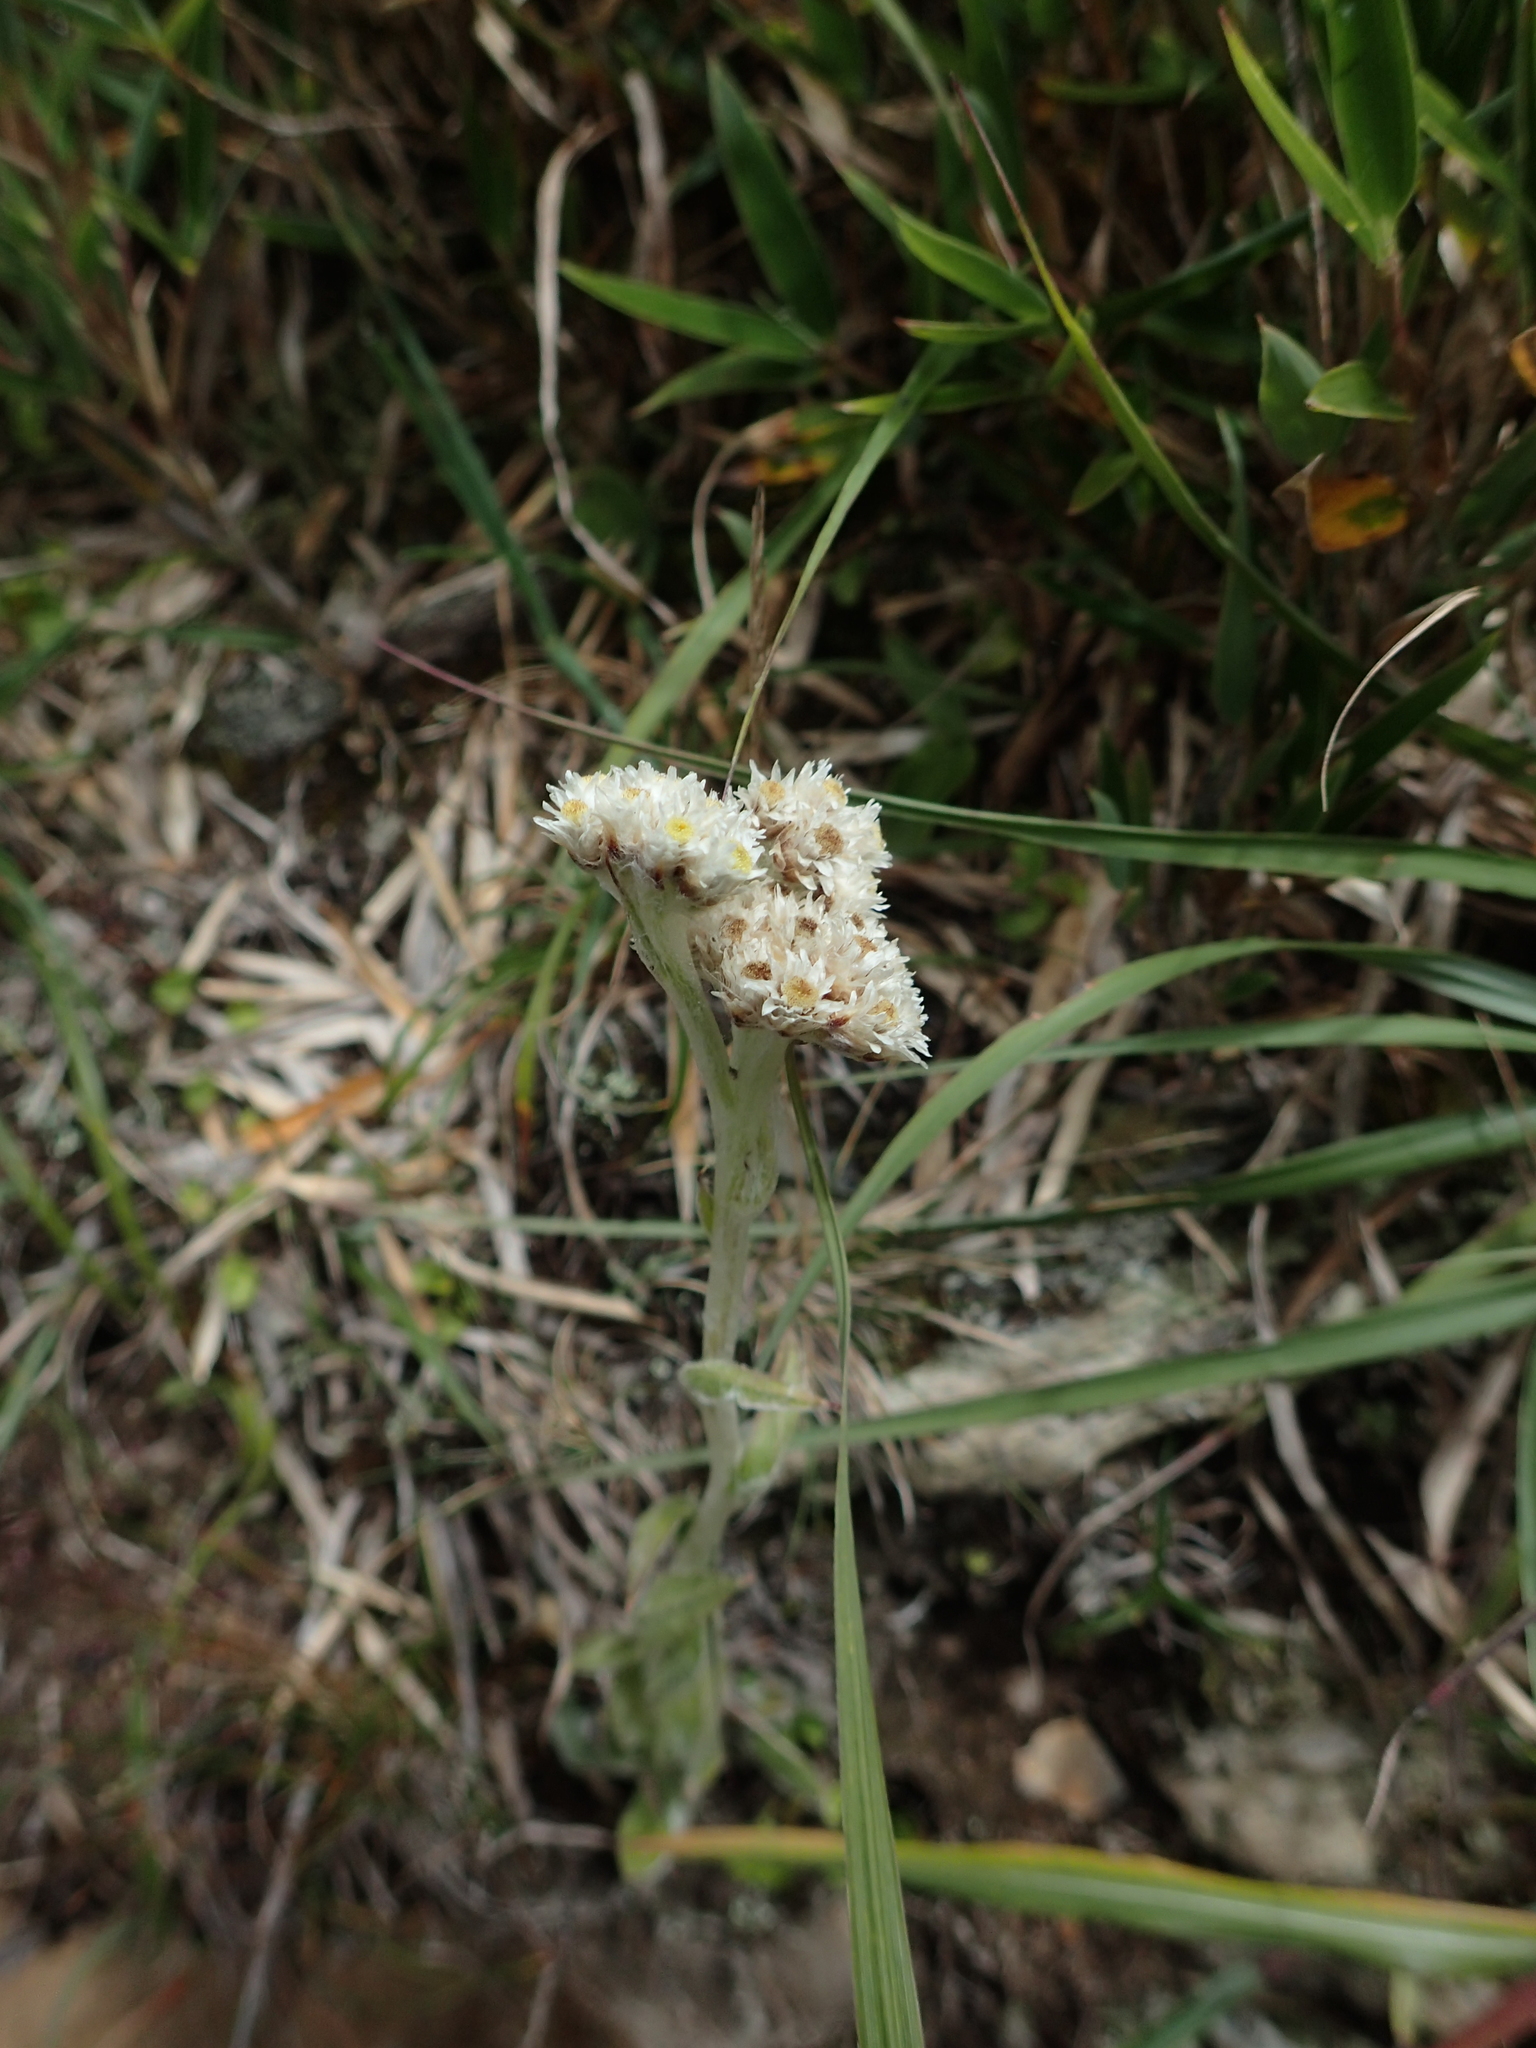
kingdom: Plantae
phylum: Tracheophyta
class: Magnoliopsida
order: Asterales
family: Asteraceae
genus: Anaphalis
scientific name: Anaphalis royleana
